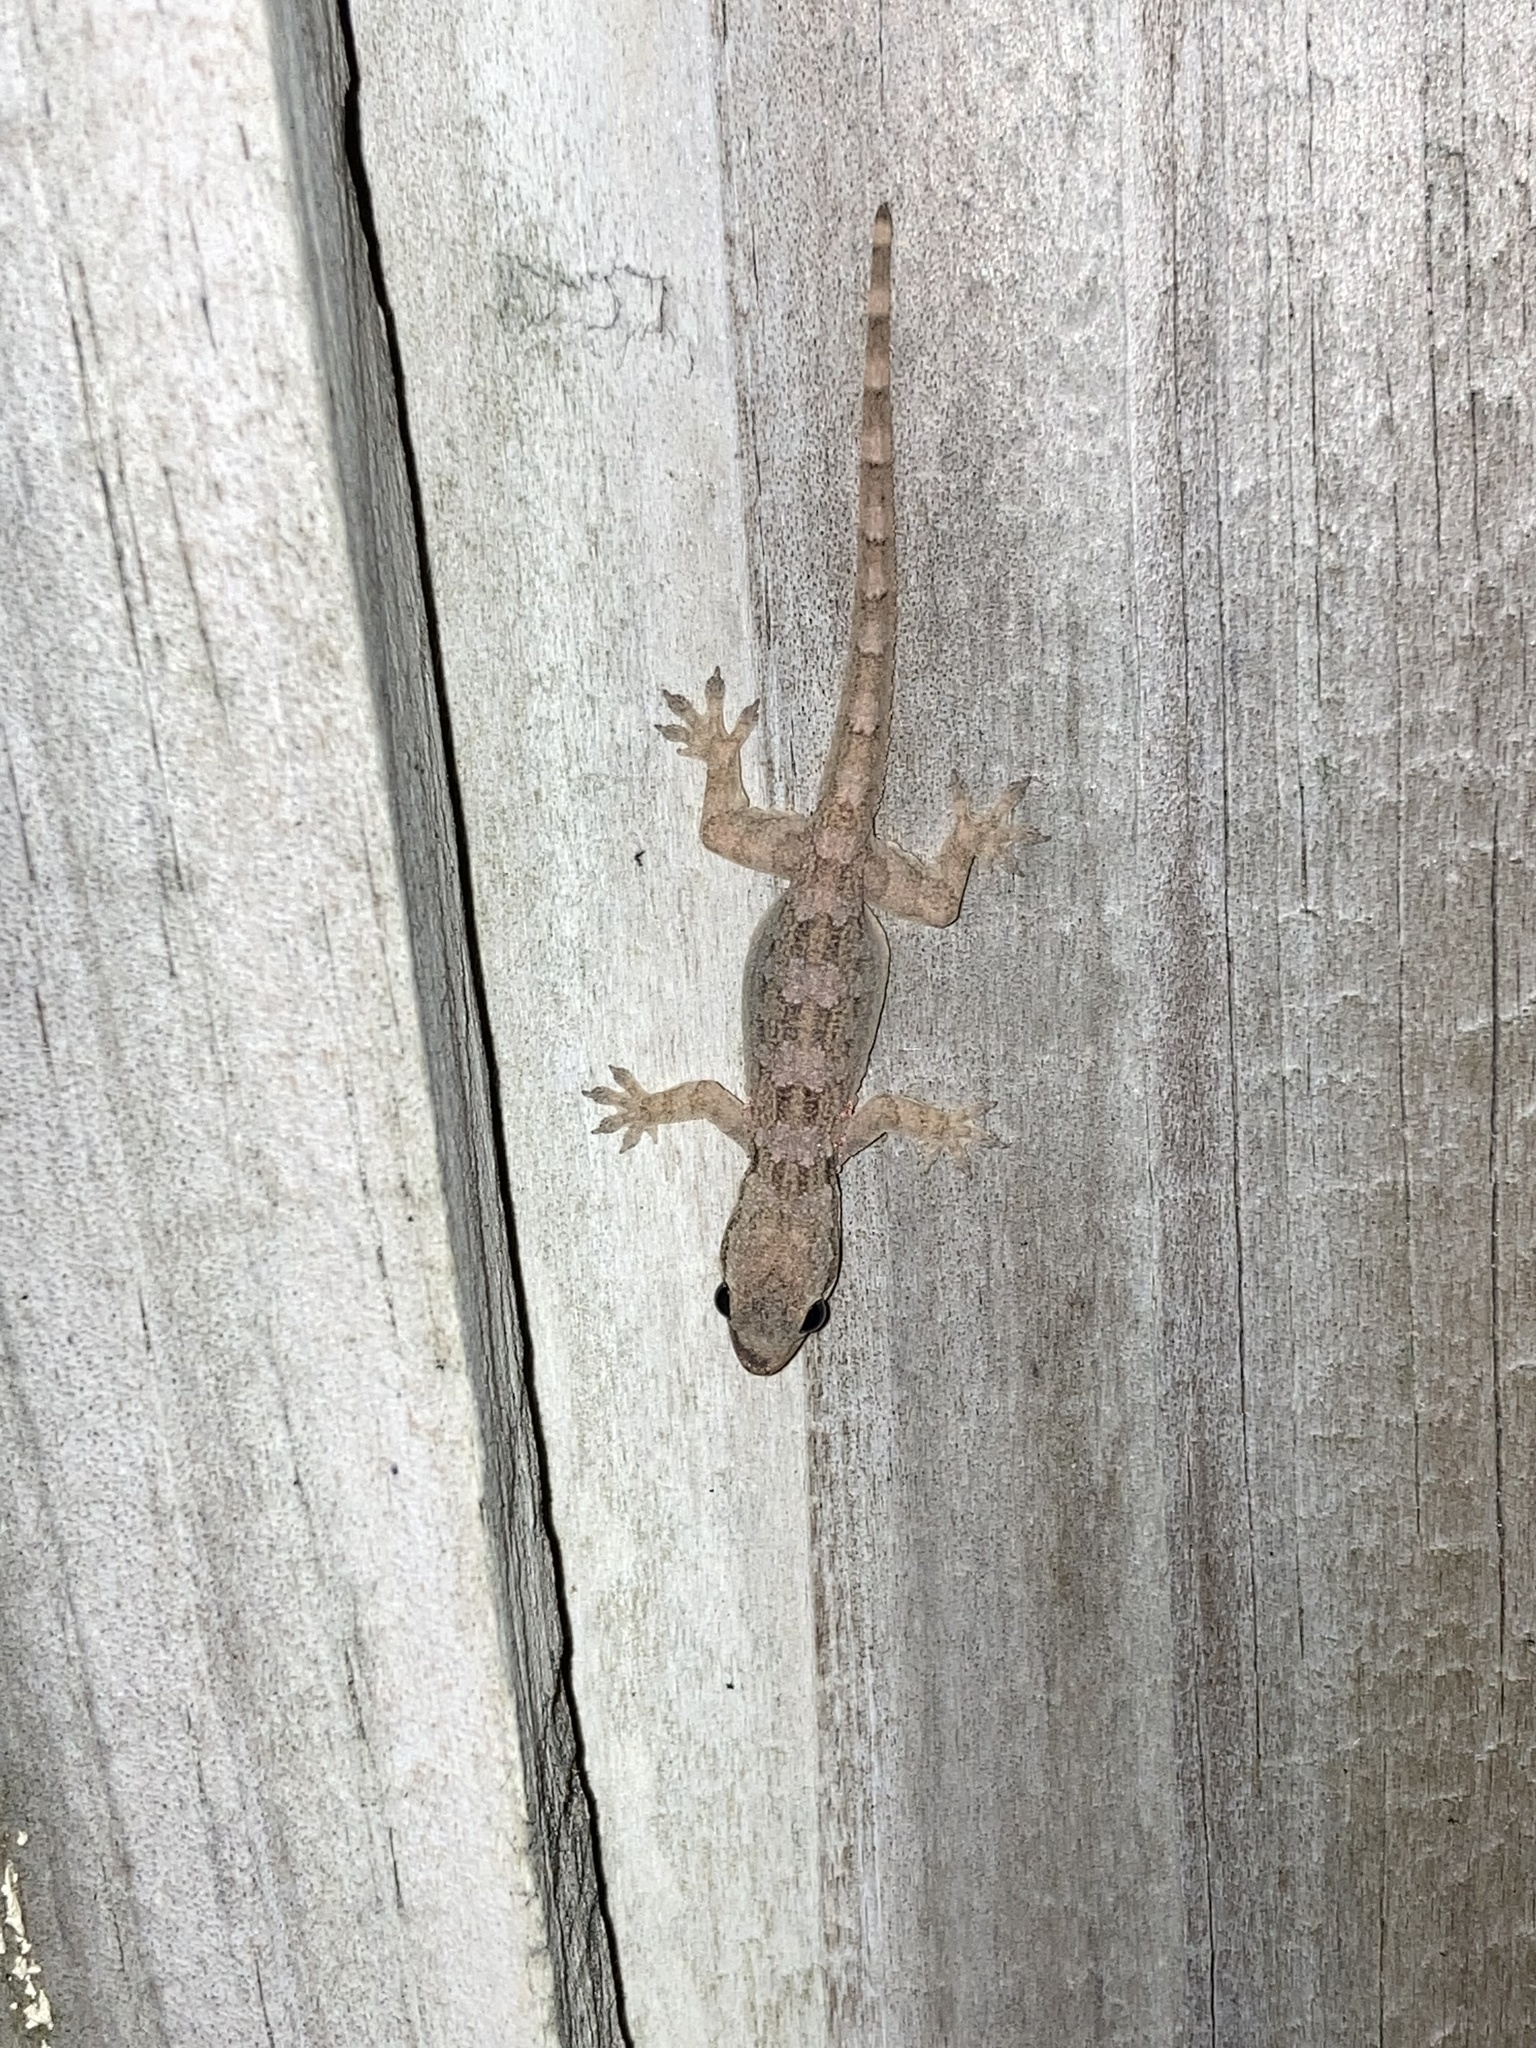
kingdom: Animalia
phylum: Chordata
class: Squamata
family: Gekkonidae
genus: Hemidactylus
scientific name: Hemidactylus platyurus
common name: Flat-tailed house gecko
